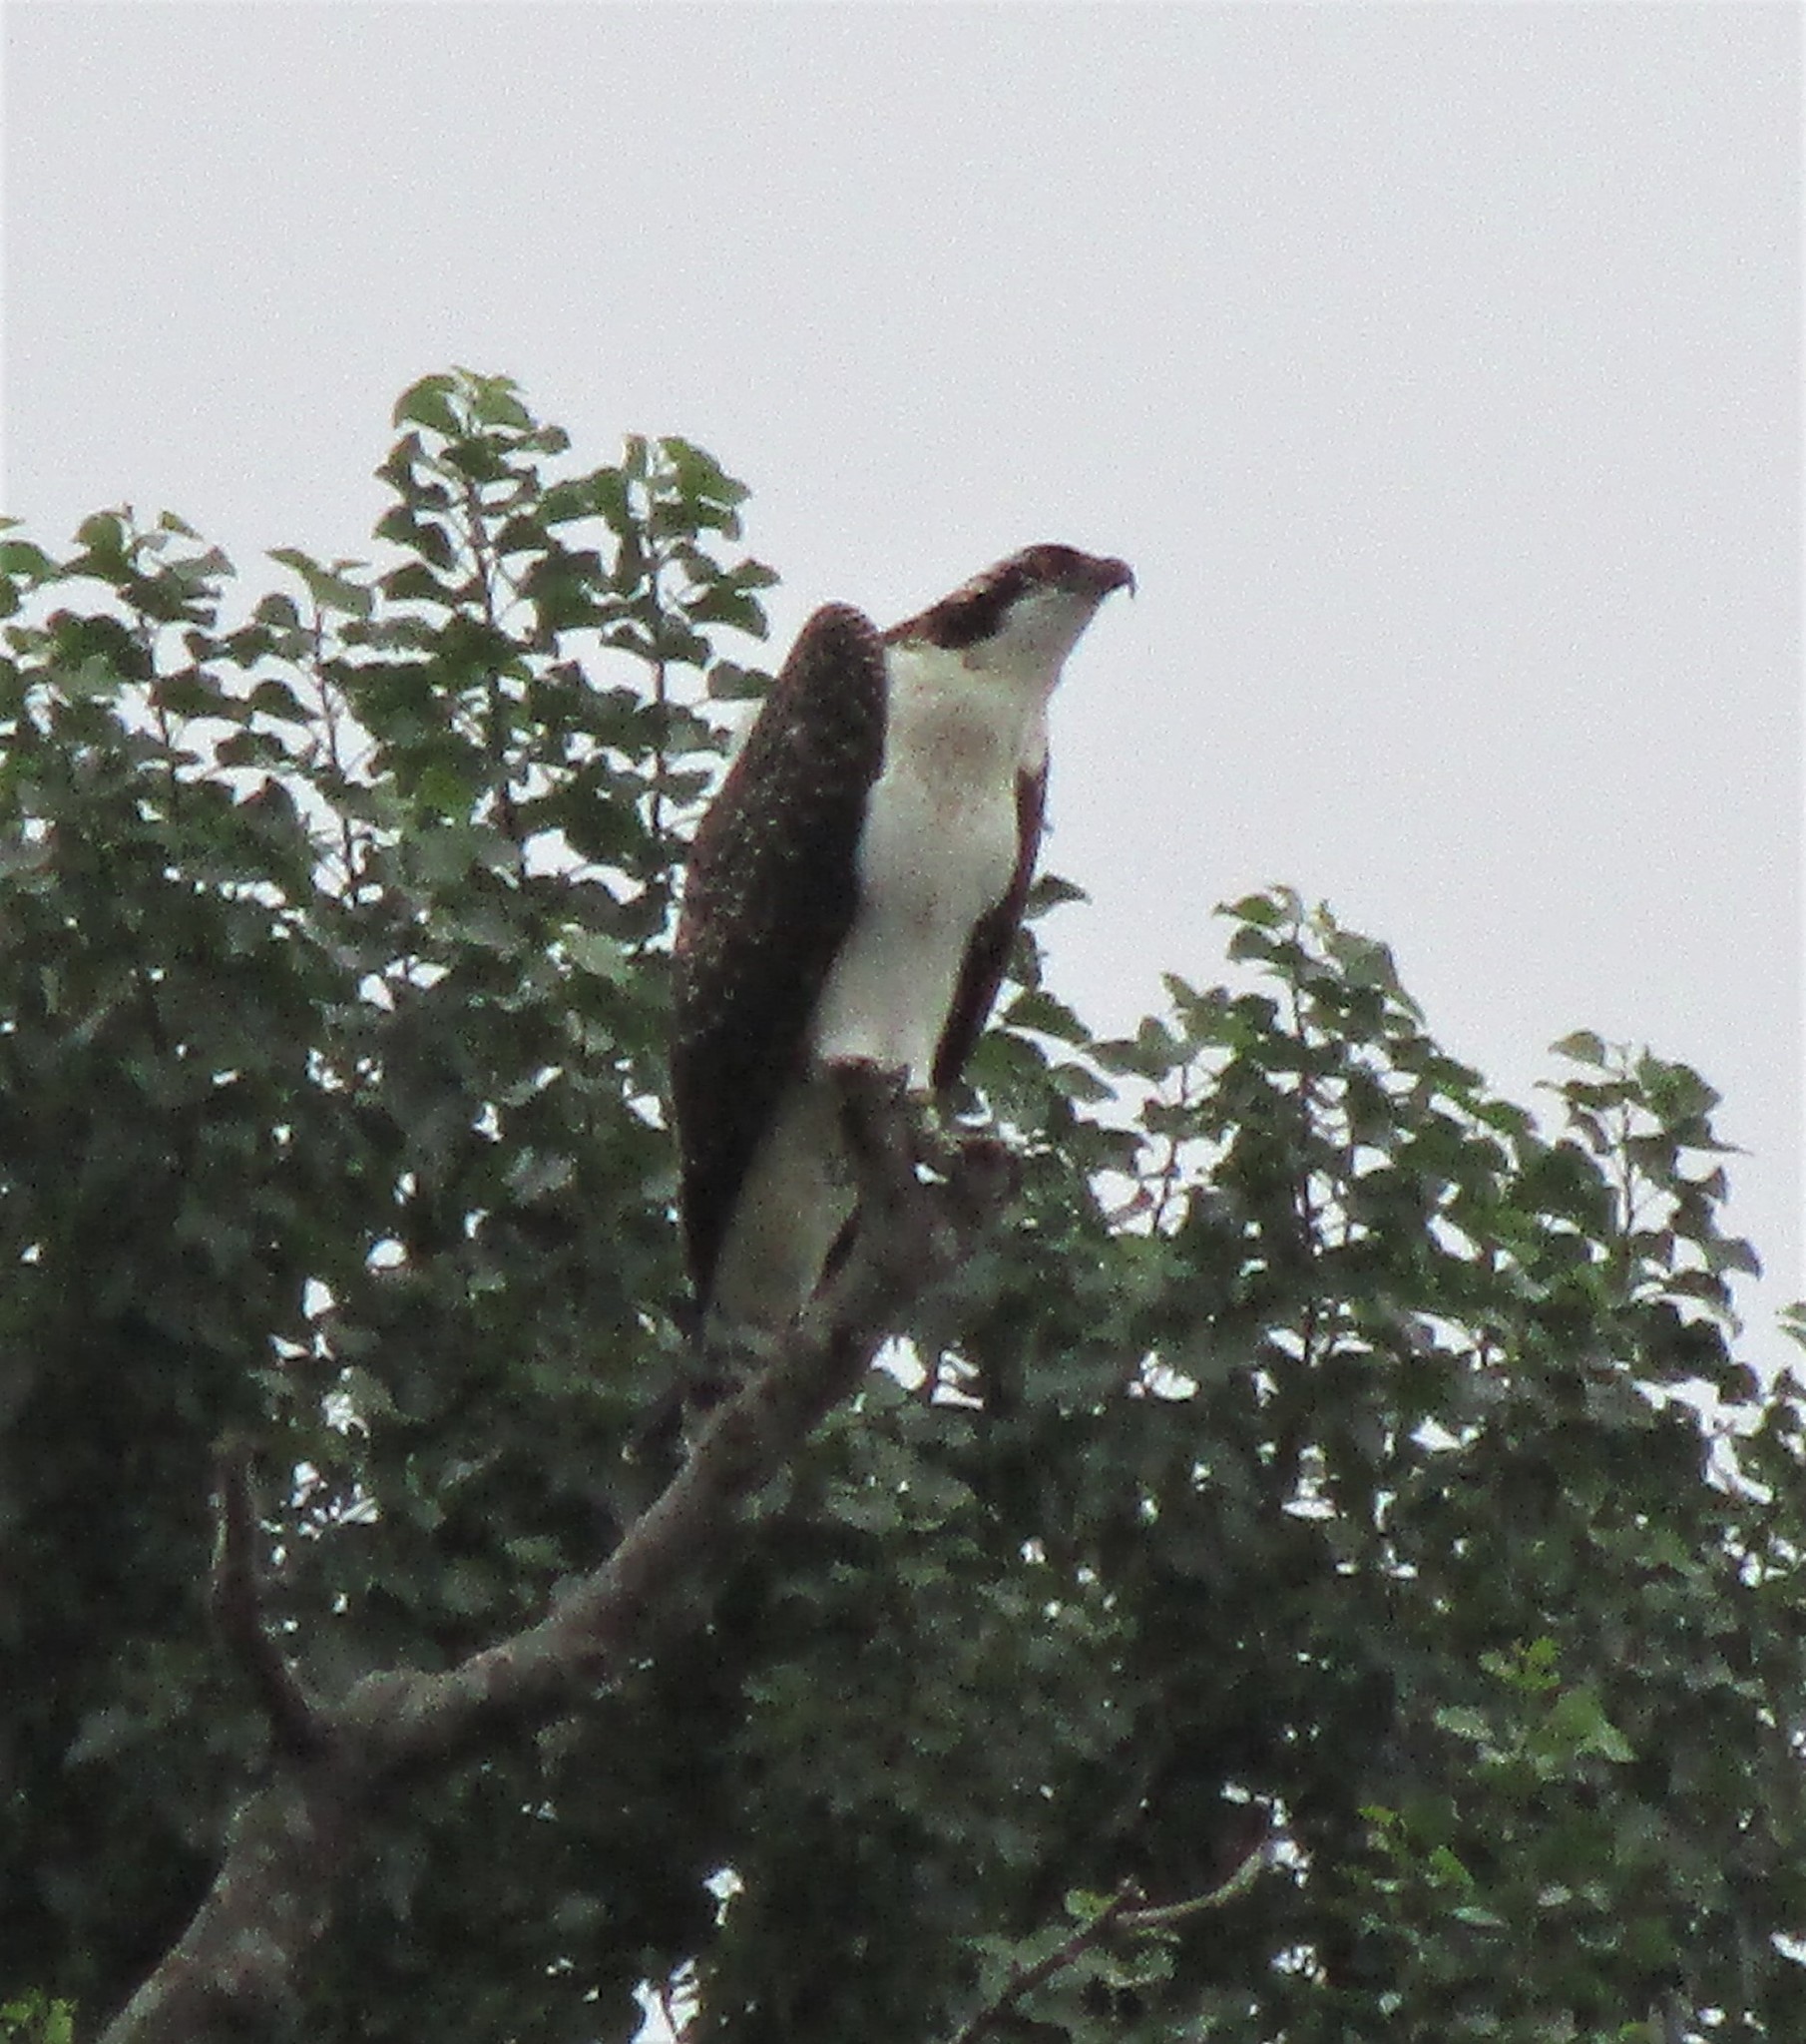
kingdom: Animalia
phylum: Chordata
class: Aves
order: Accipitriformes
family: Pandionidae
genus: Pandion
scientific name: Pandion haliaetus
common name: Osprey
